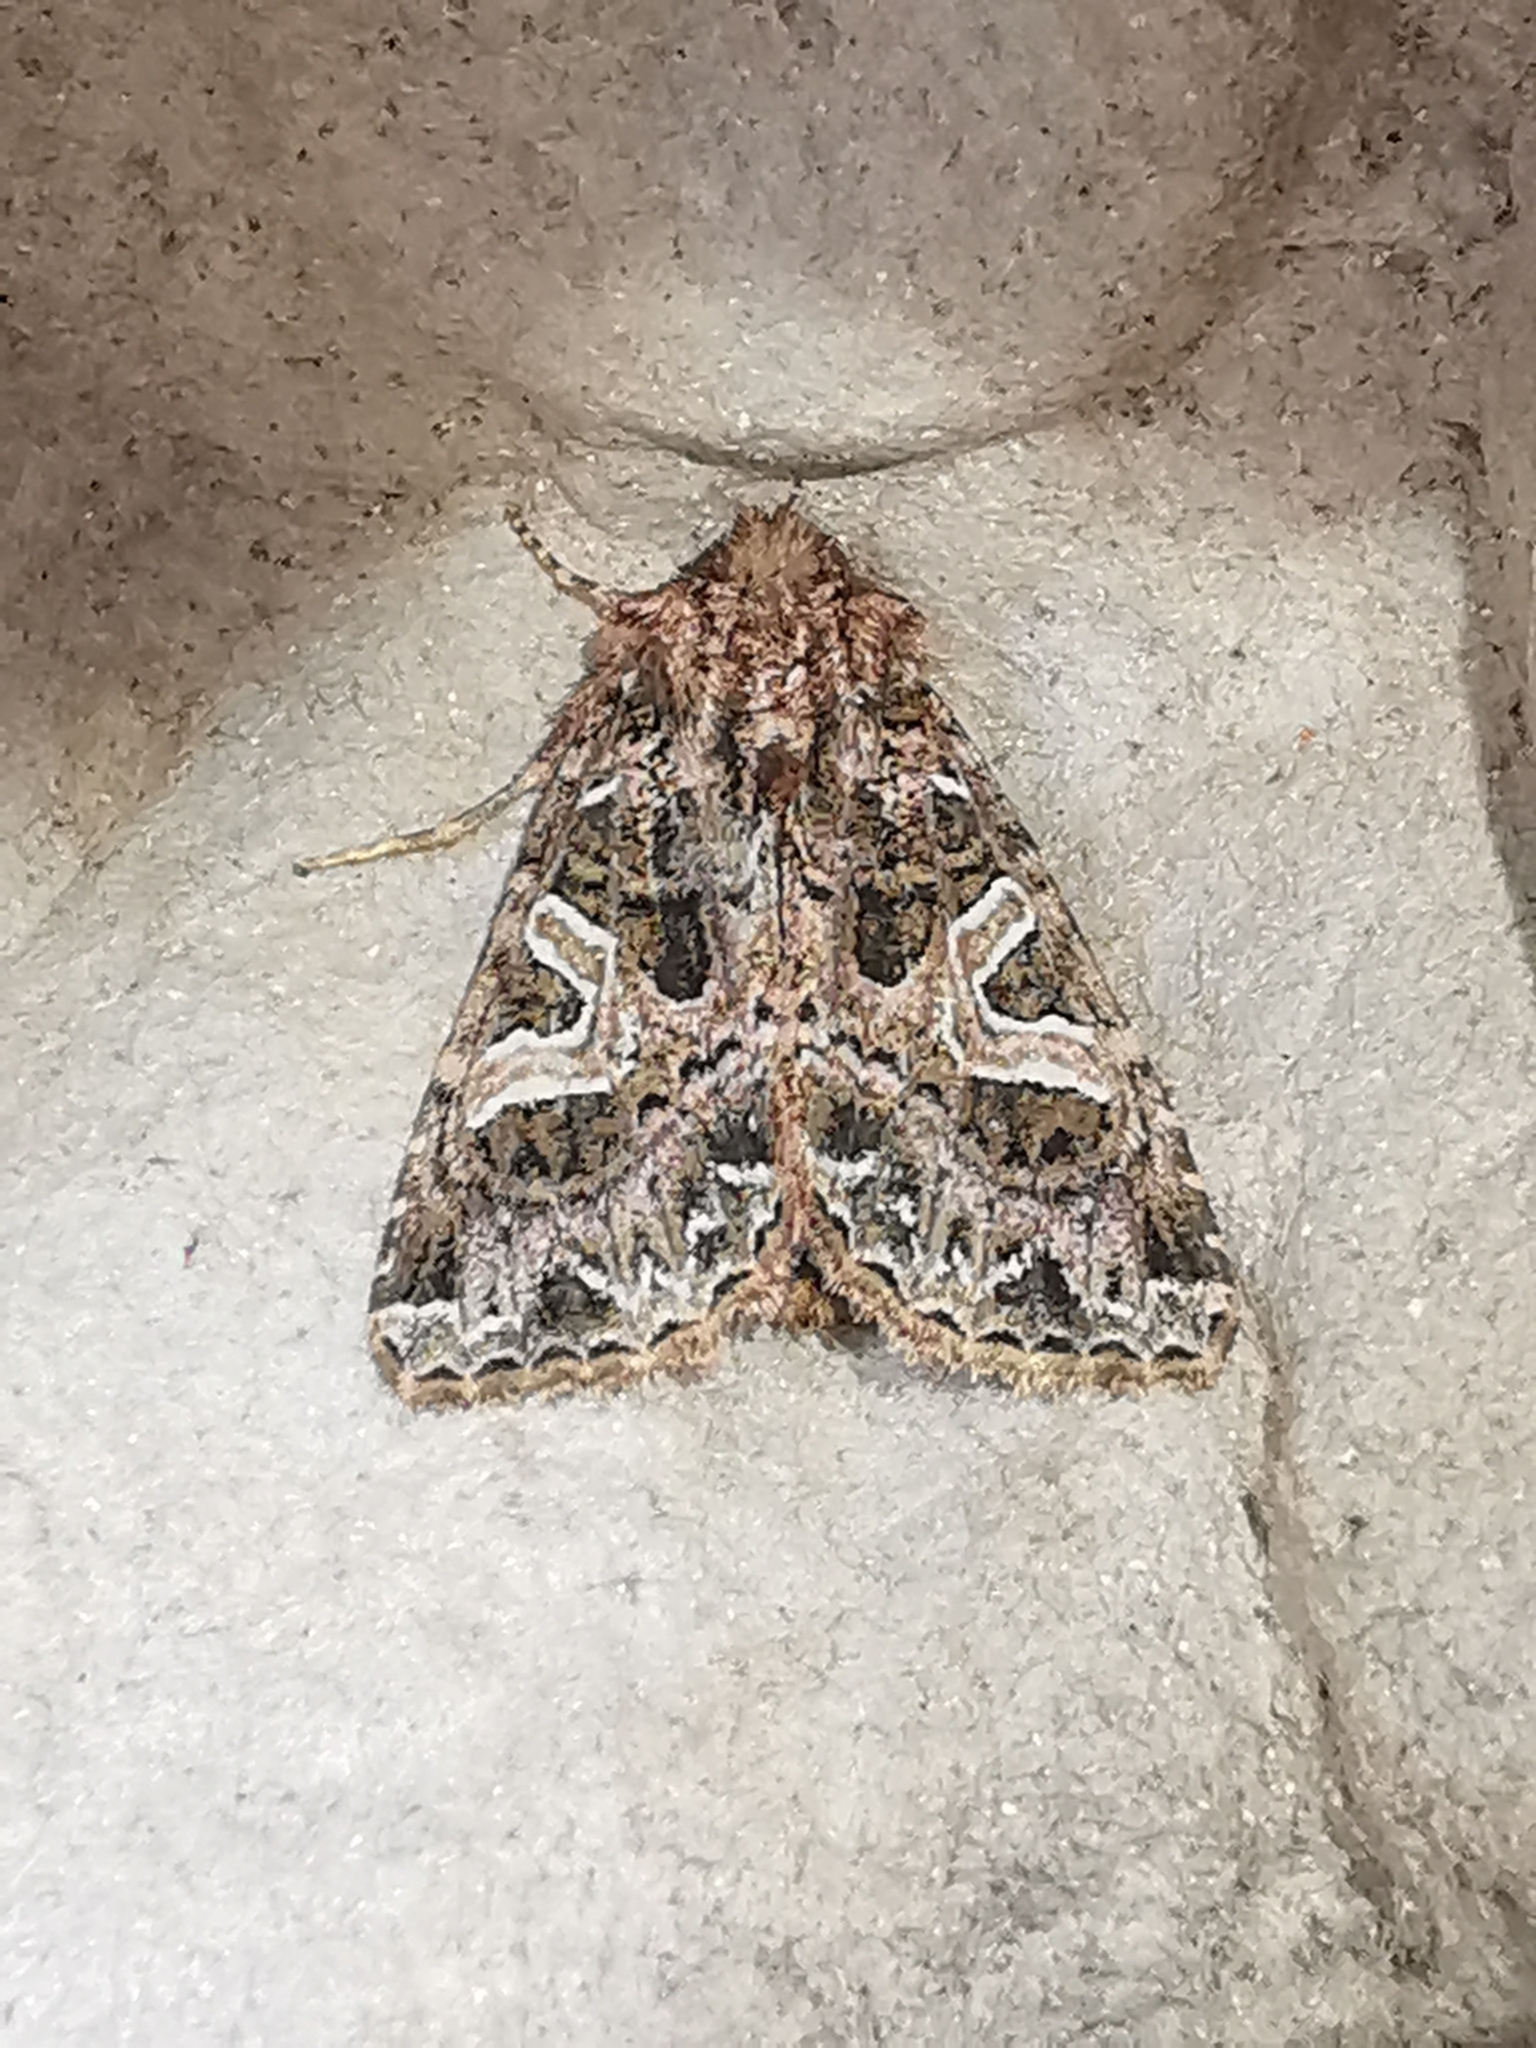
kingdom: Animalia
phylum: Arthropoda
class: Insecta
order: Lepidoptera
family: Noctuidae
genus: Sideridis
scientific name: Sideridis rivularis
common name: Campion
